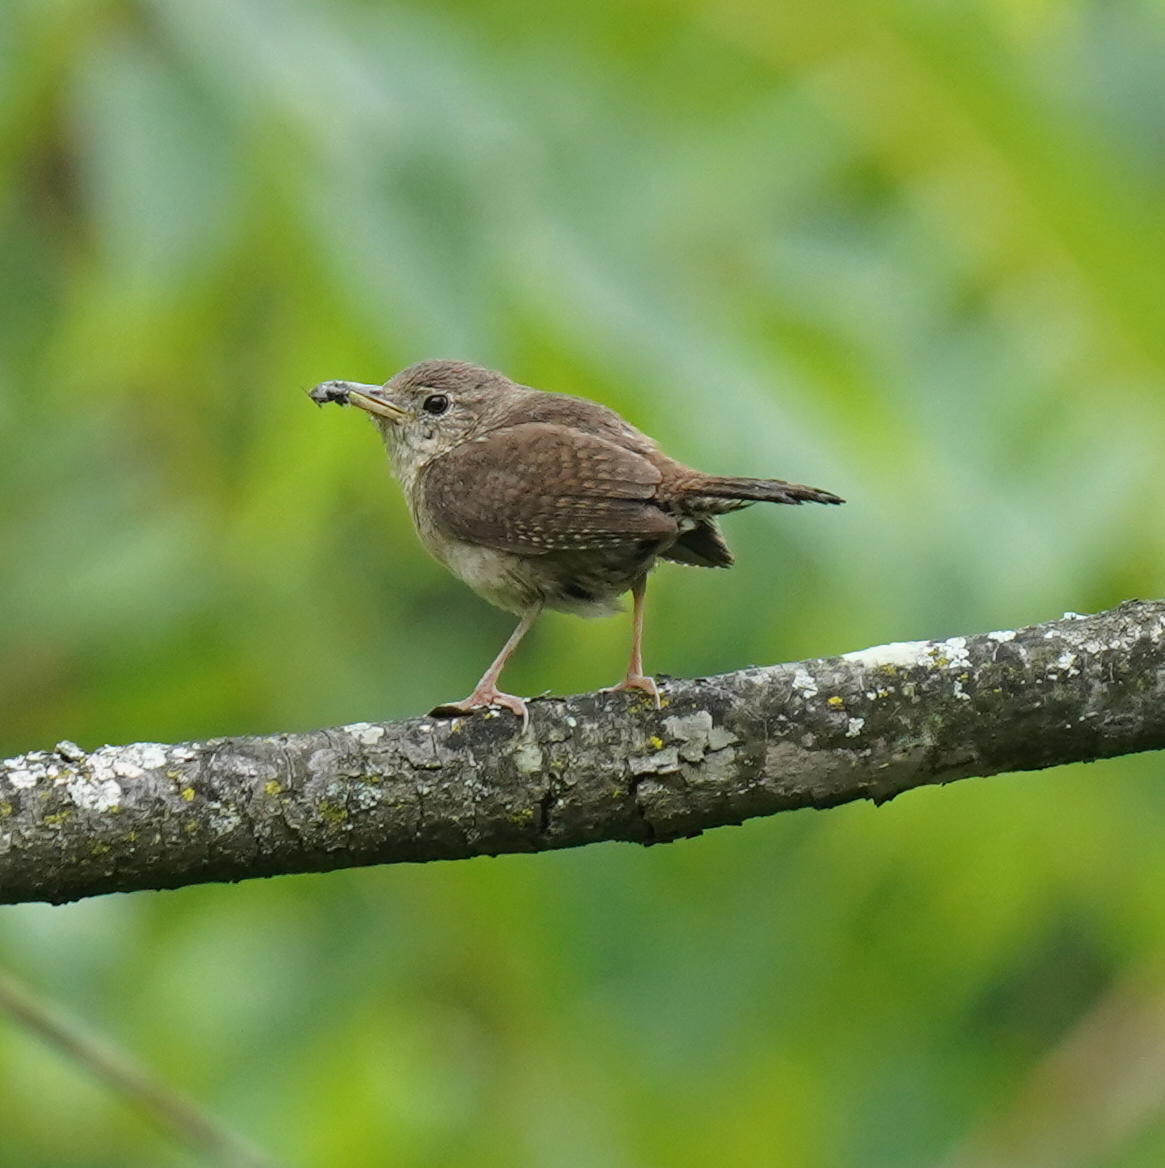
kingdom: Animalia
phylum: Chordata
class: Aves
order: Passeriformes
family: Troglodytidae
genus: Troglodytes
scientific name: Troglodytes aedon
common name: House wren
